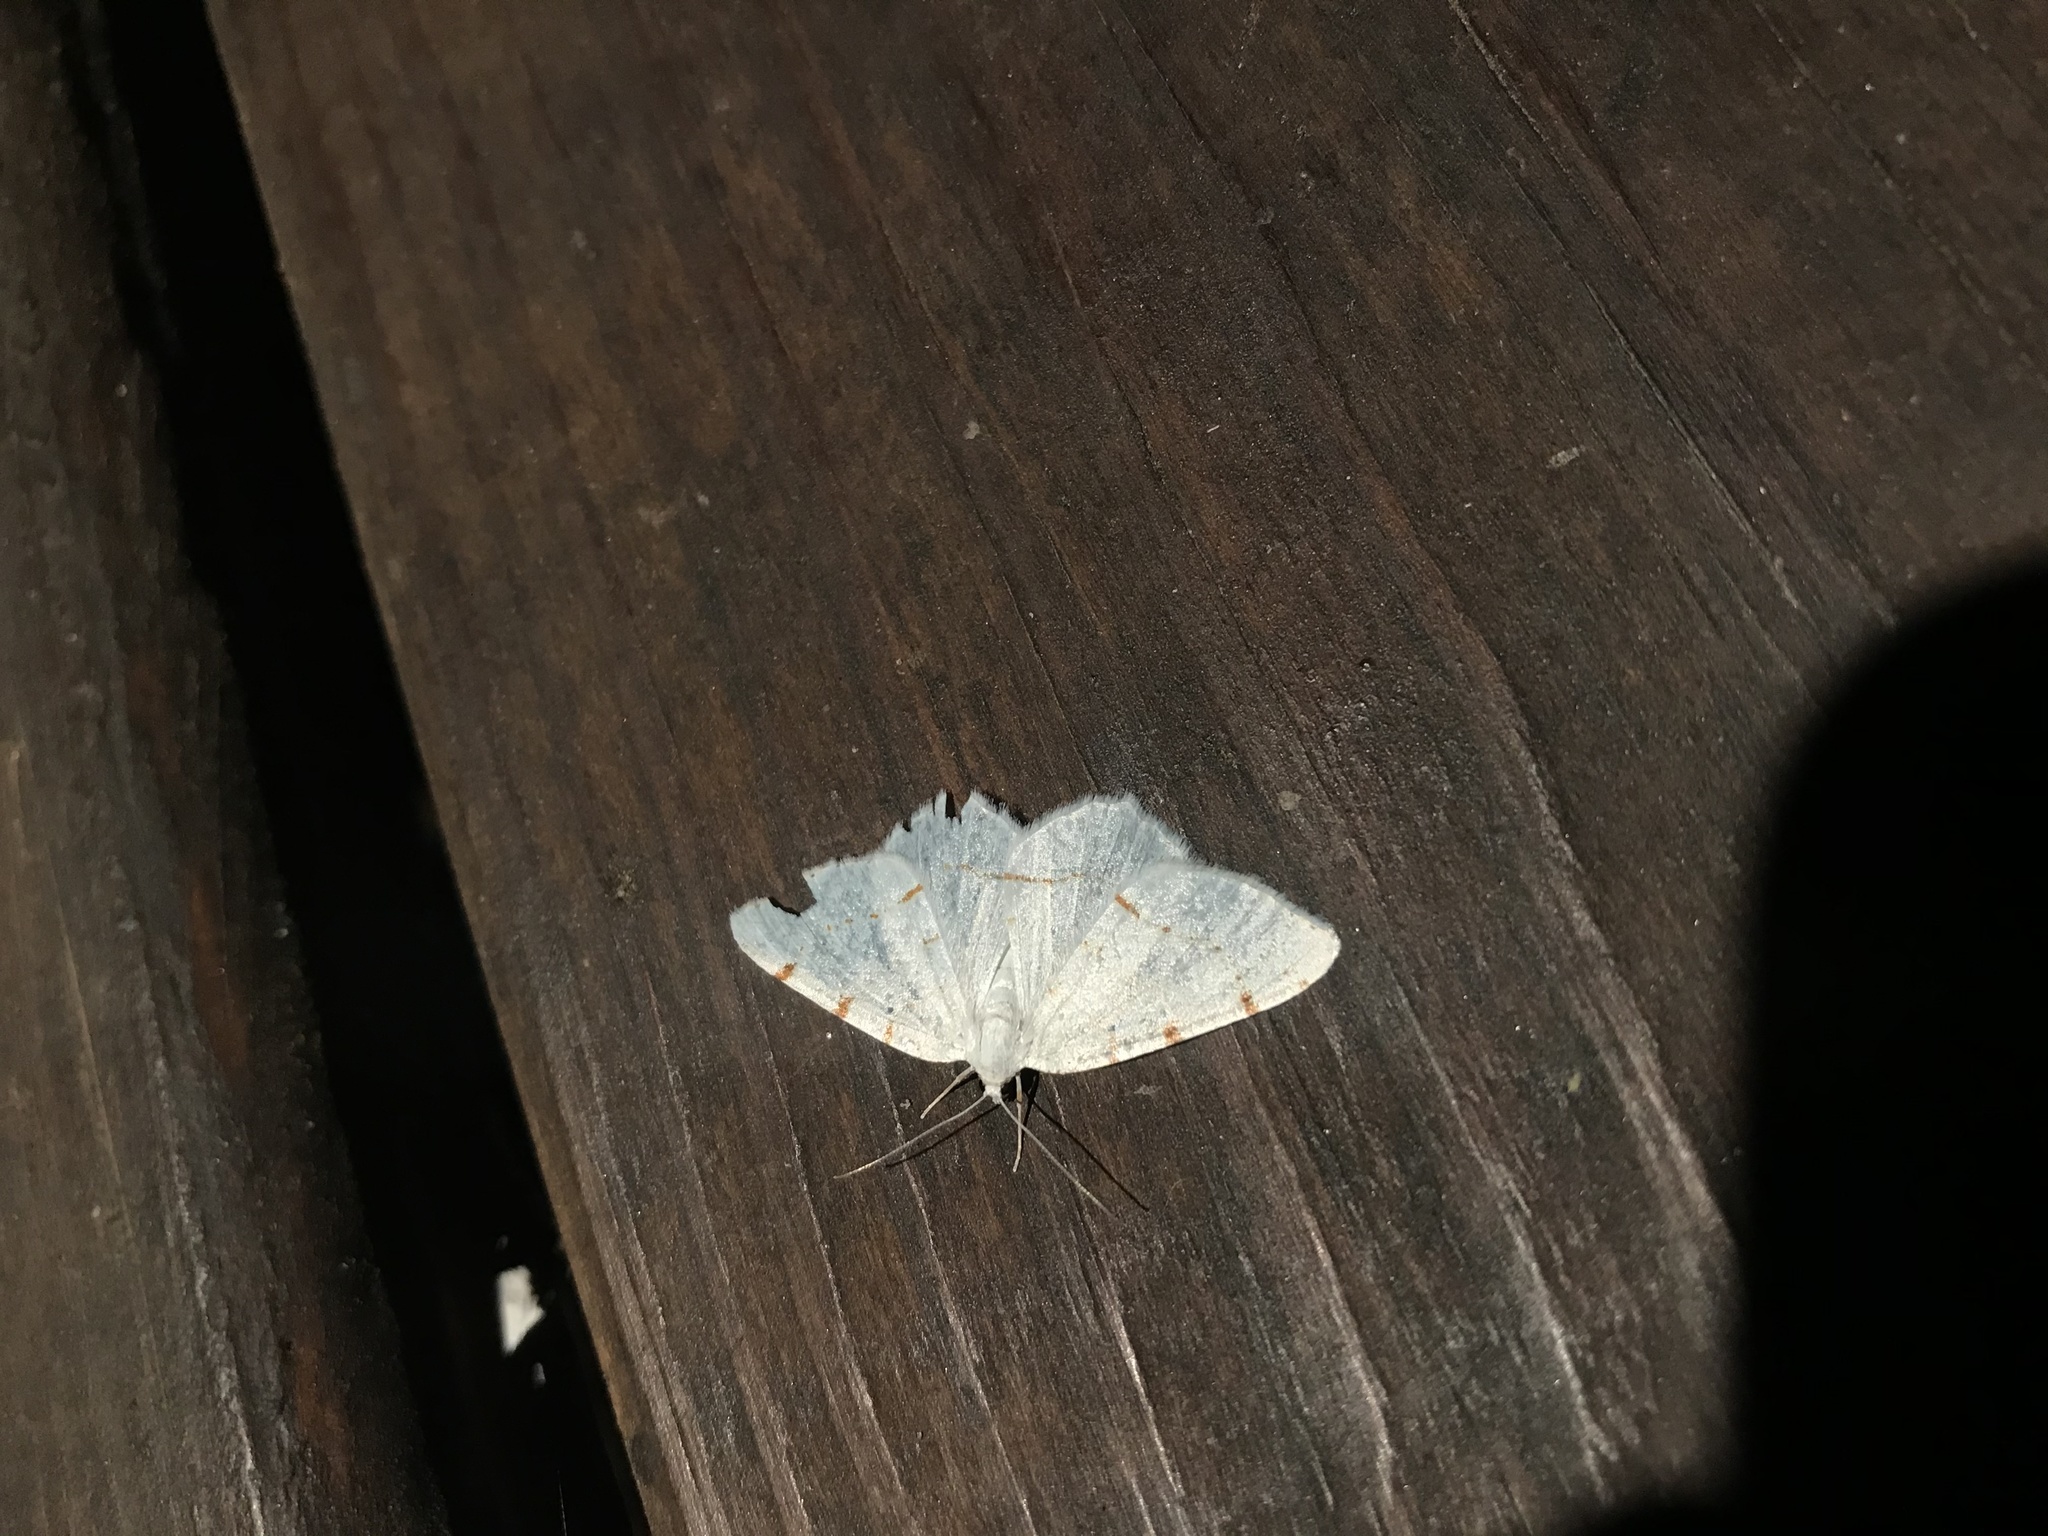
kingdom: Animalia
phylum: Arthropoda
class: Insecta
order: Lepidoptera
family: Geometridae
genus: Macaria
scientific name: Macaria pustularia
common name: Lesser maple spanworm moth
